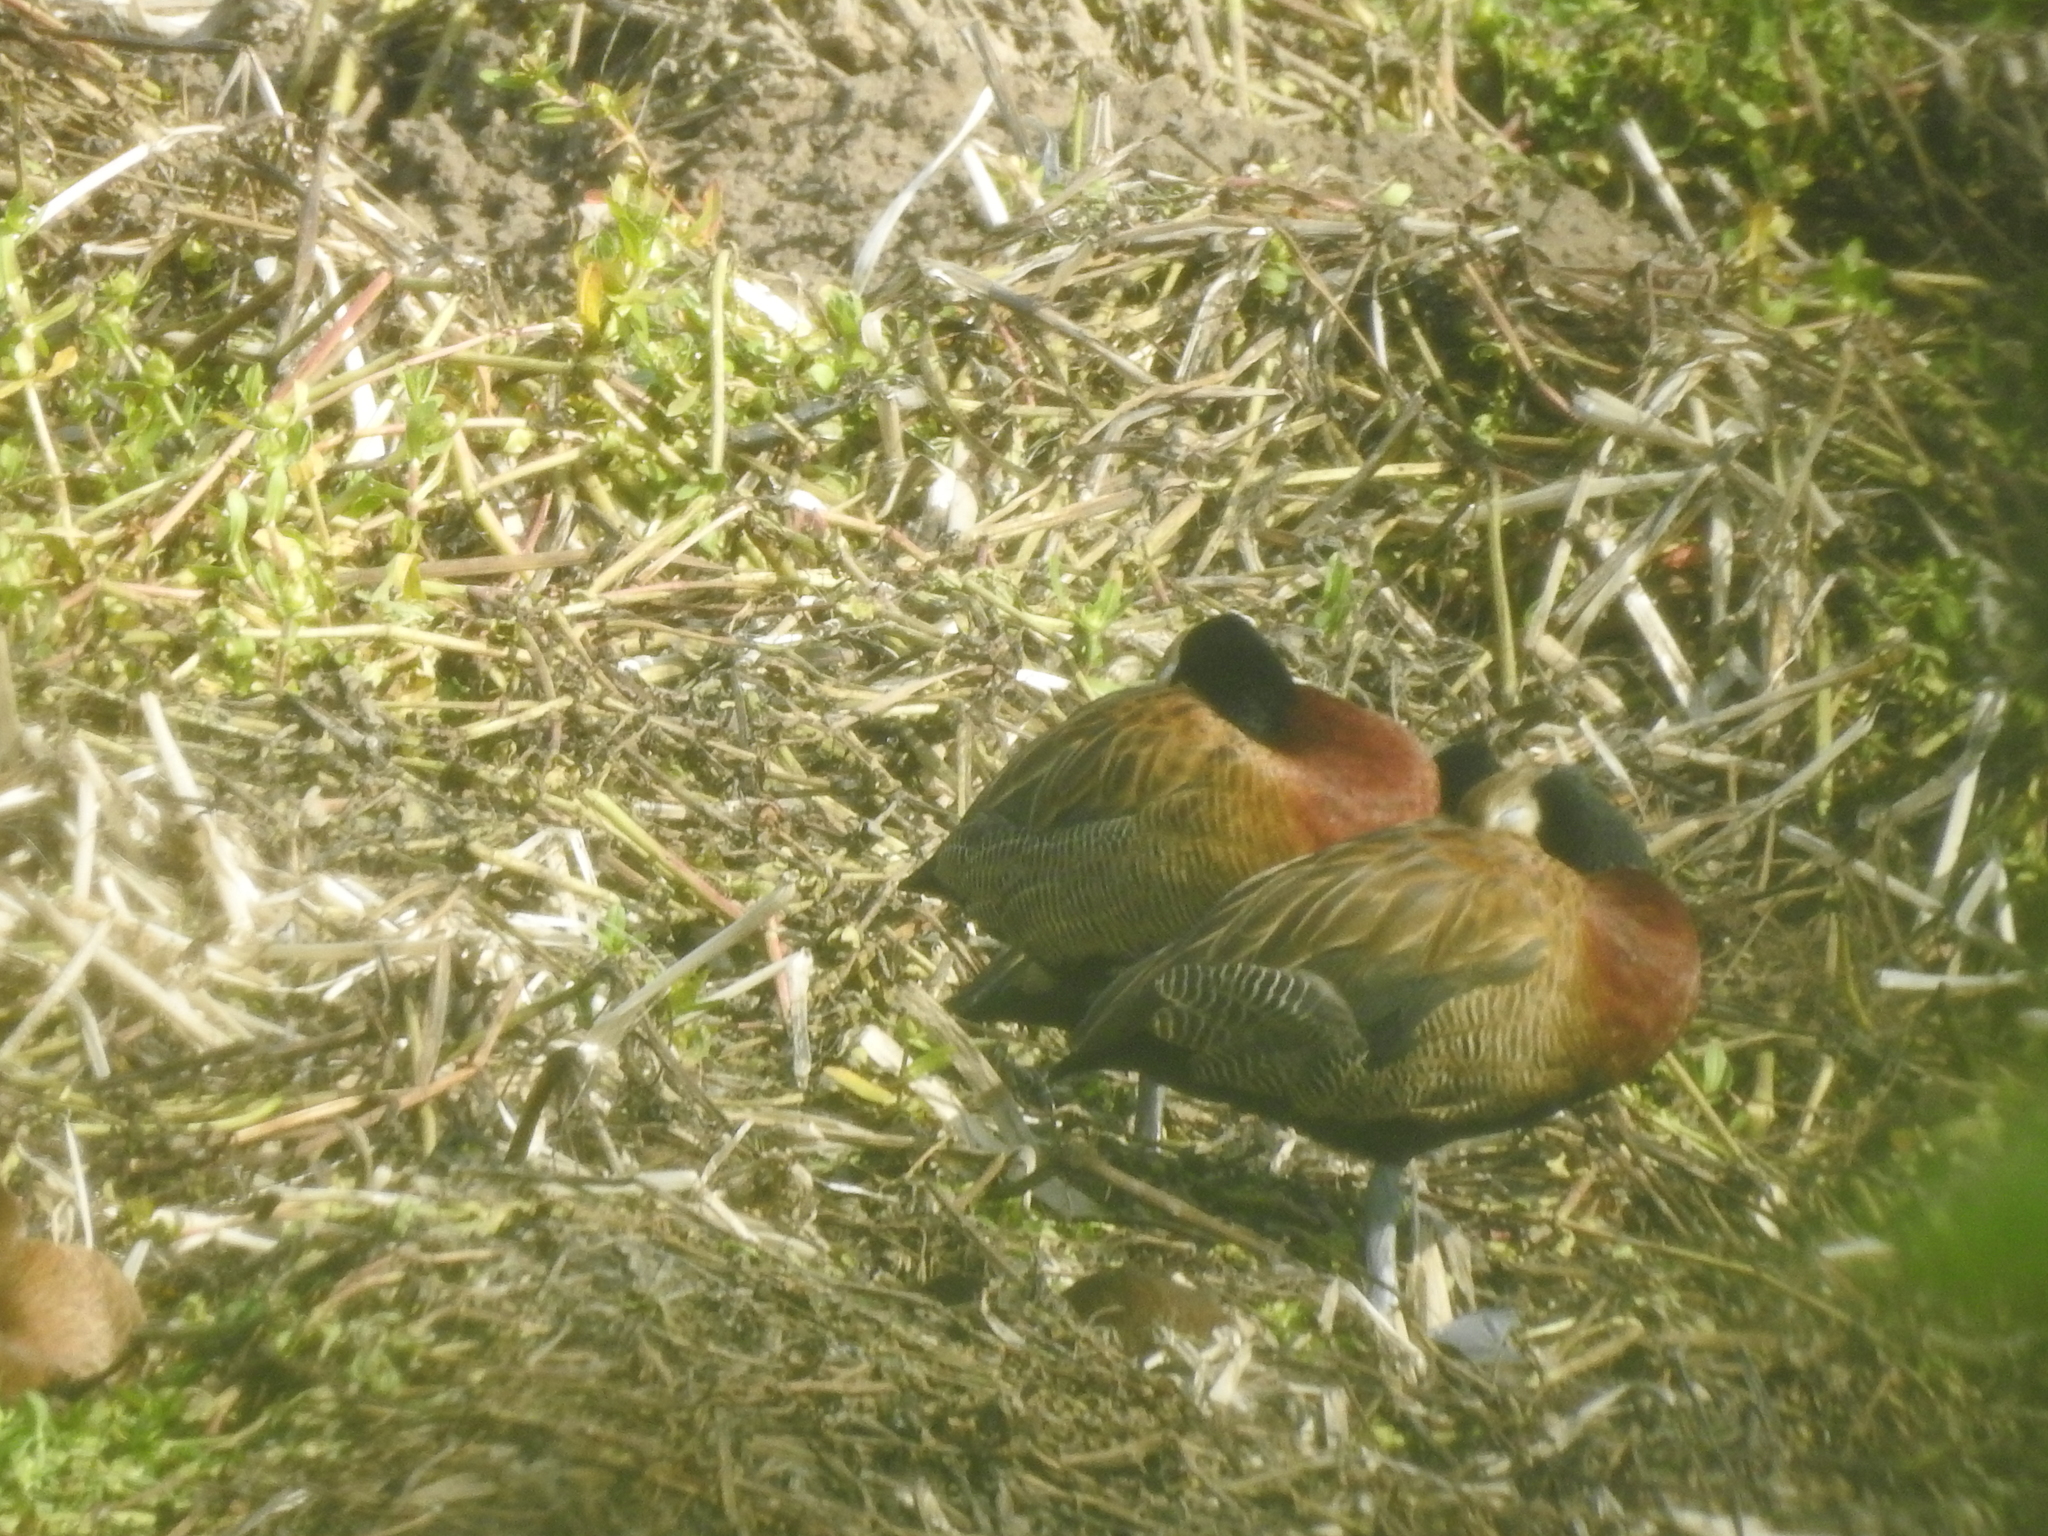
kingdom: Animalia
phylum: Chordata
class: Aves
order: Anseriformes
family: Anatidae
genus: Dendrocygna
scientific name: Dendrocygna viduata
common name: White-faced whistling duck
